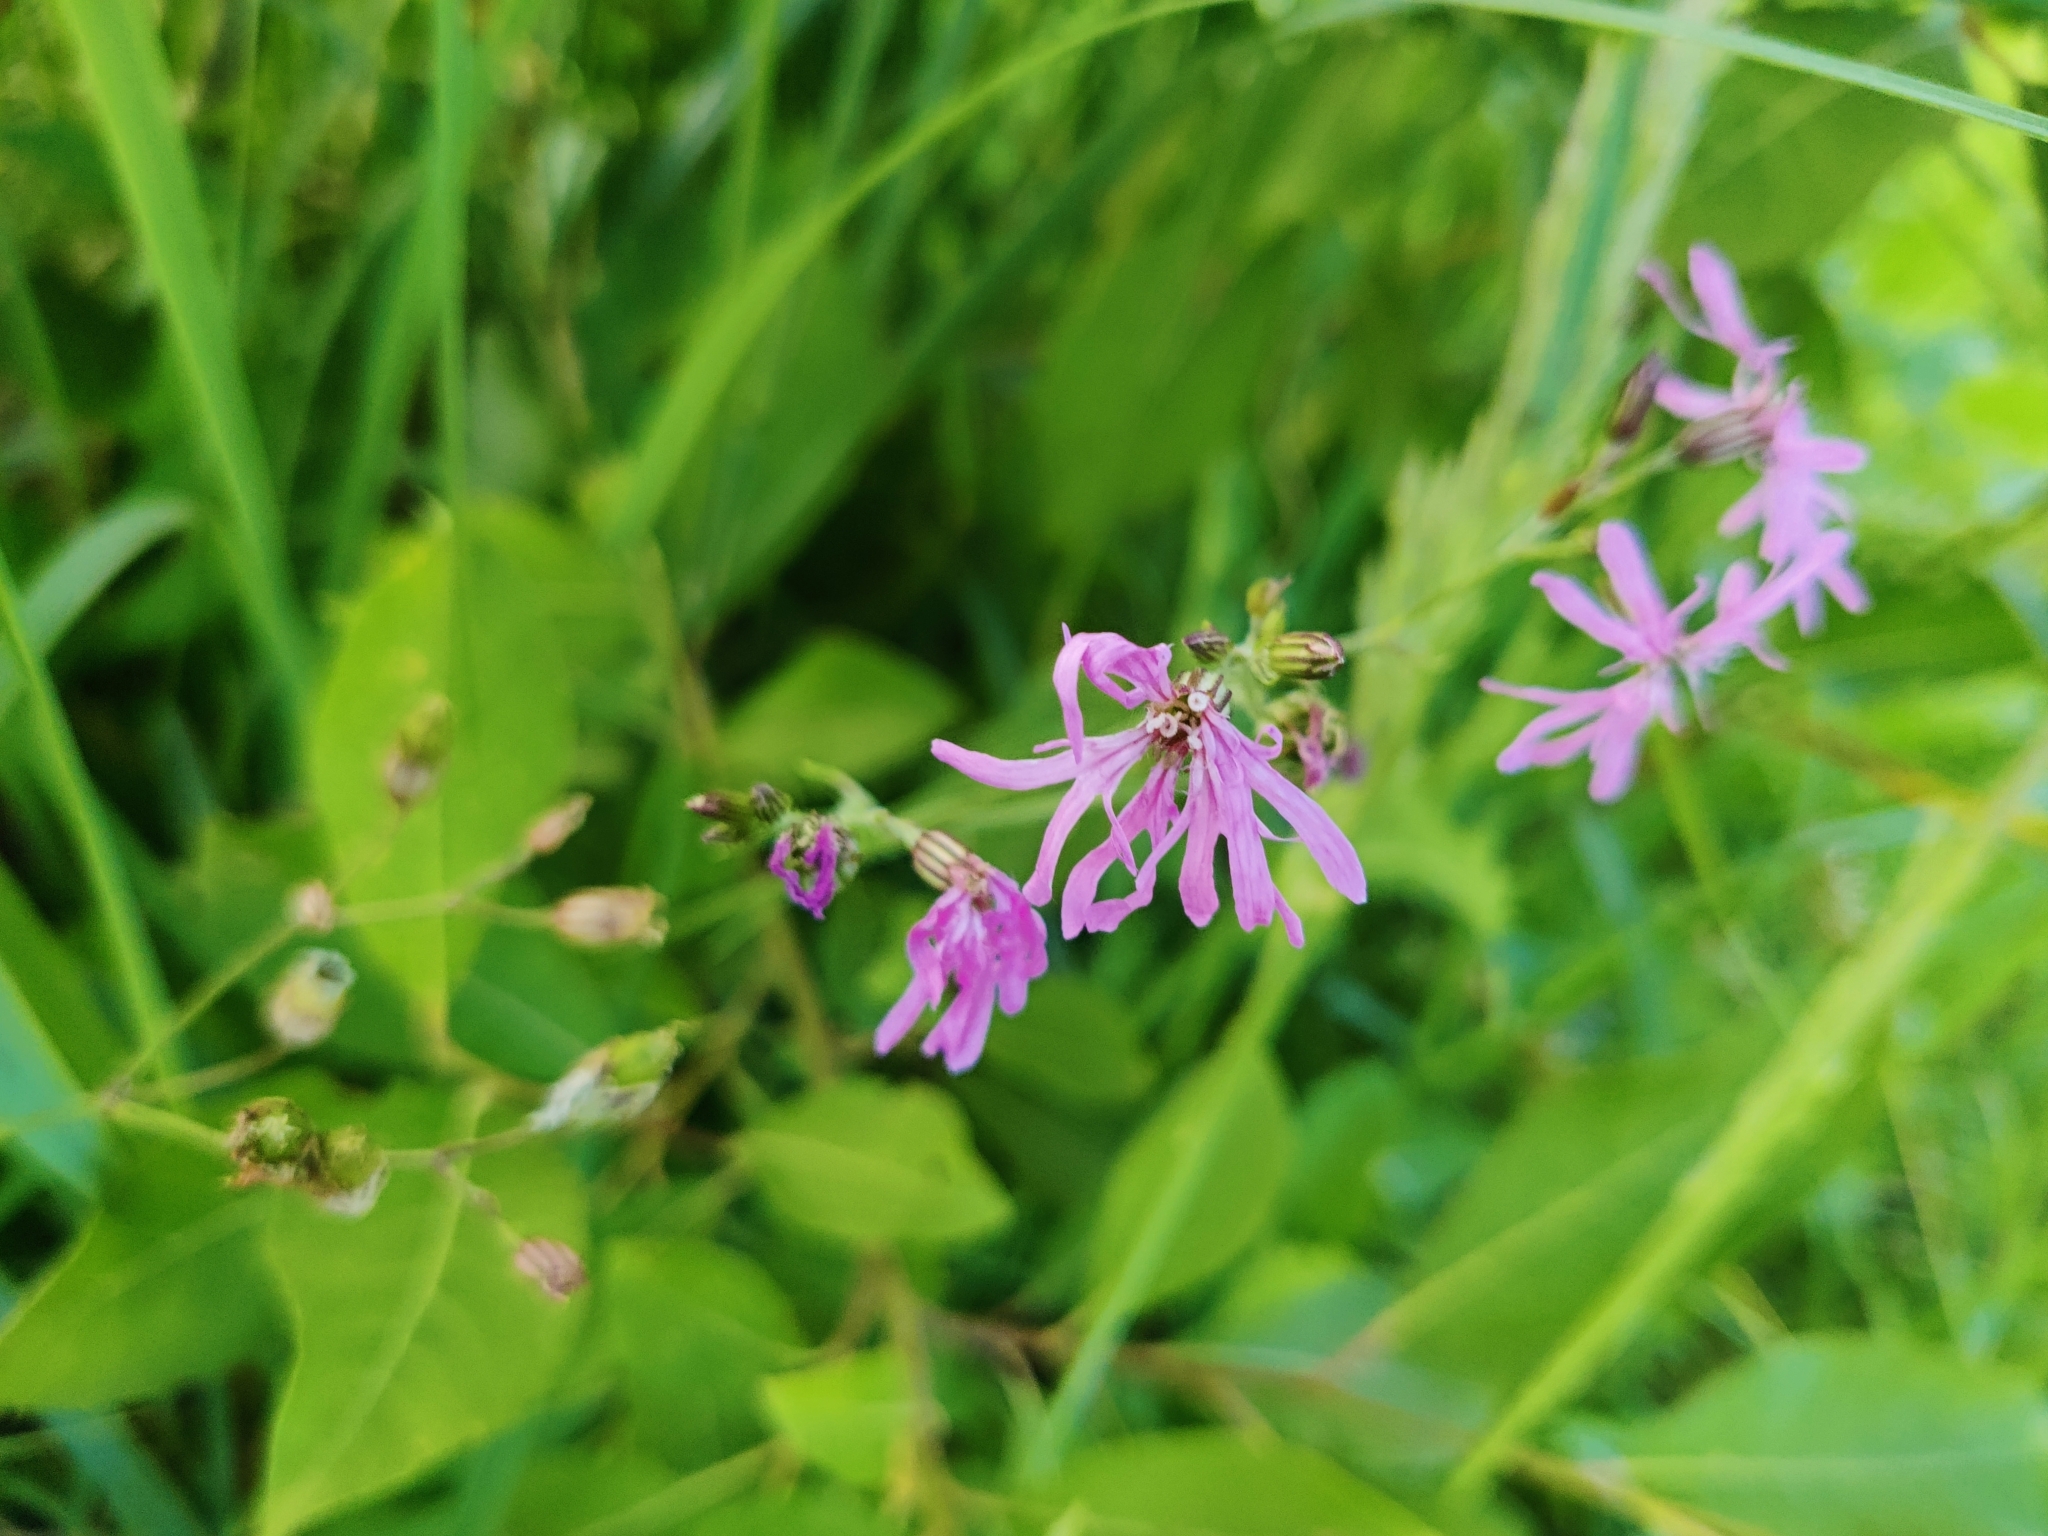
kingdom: Plantae
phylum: Tracheophyta
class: Magnoliopsida
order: Caryophyllales
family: Caryophyllaceae
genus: Silene
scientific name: Silene flos-cuculi
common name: Ragged-robin
